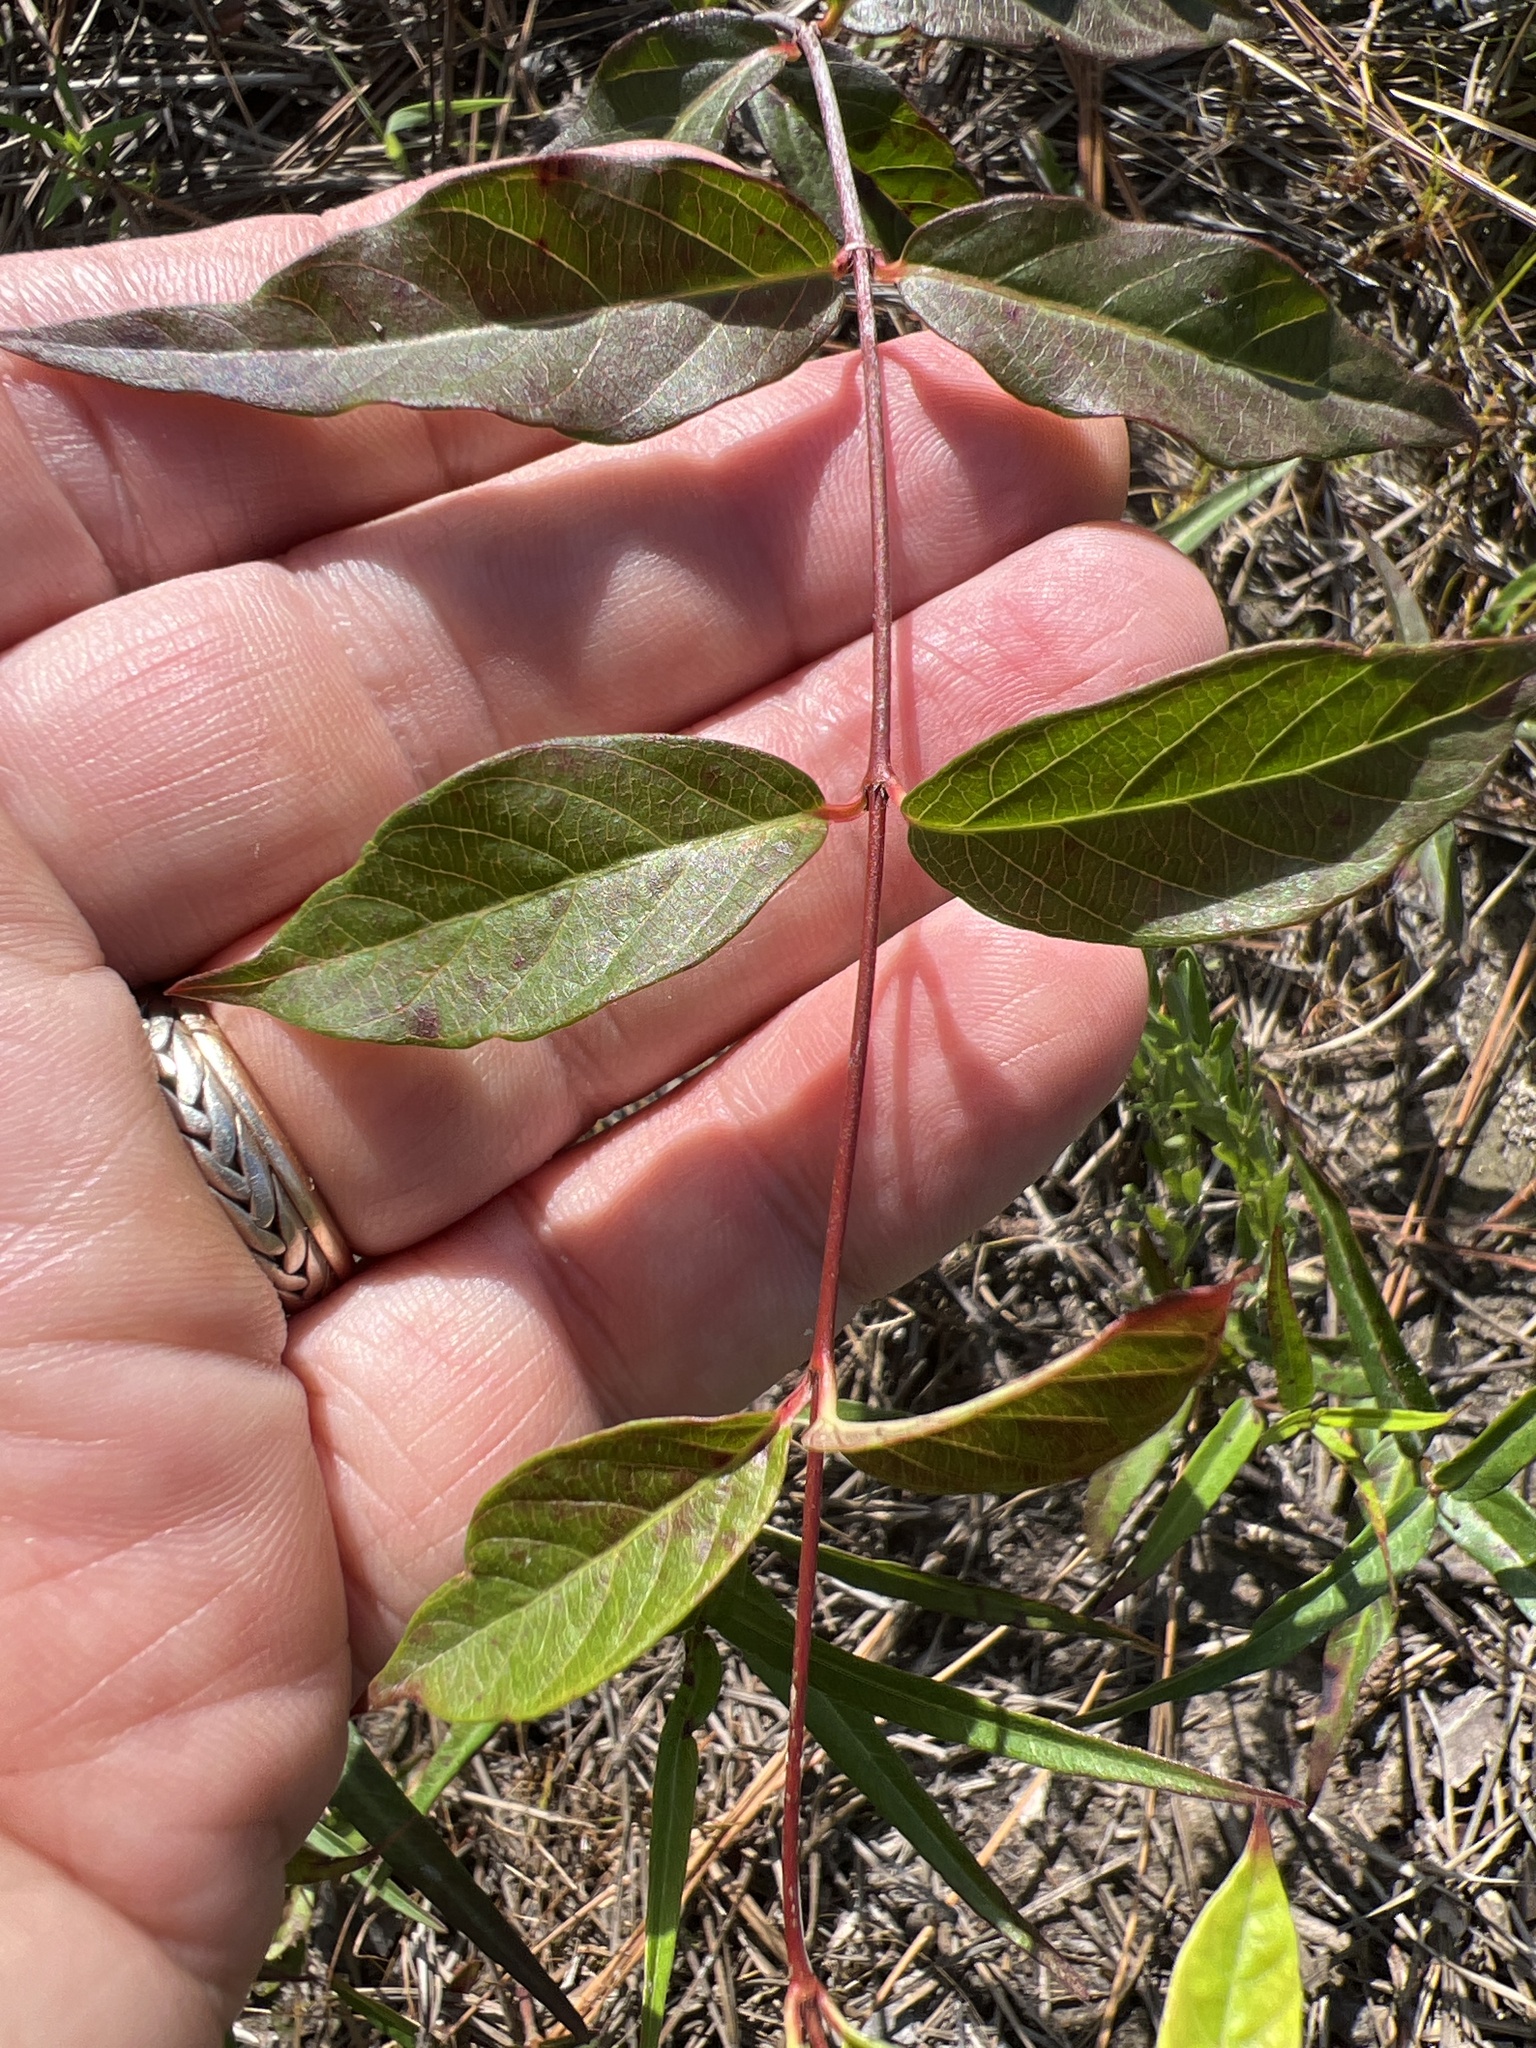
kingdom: Plantae
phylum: Tracheophyta
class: Magnoliopsida
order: Gentianales
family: Apocynaceae
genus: Thyrsanthella
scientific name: Thyrsanthella difformis
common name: Climbing dogbane
